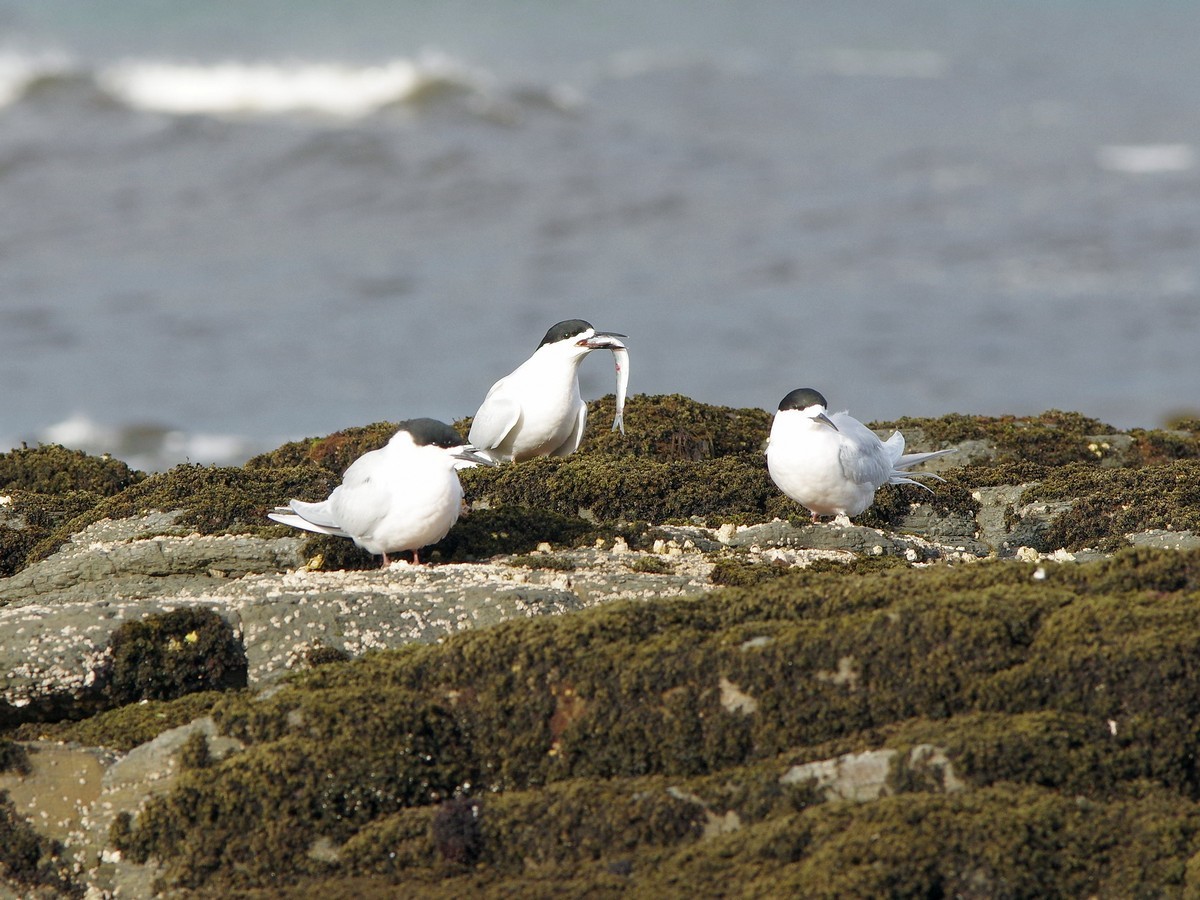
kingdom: Animalia
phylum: Chordata
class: Aves
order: Charadriiformes
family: Laridae
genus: Sterna
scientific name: Sterna striata
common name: White-fronted tern
